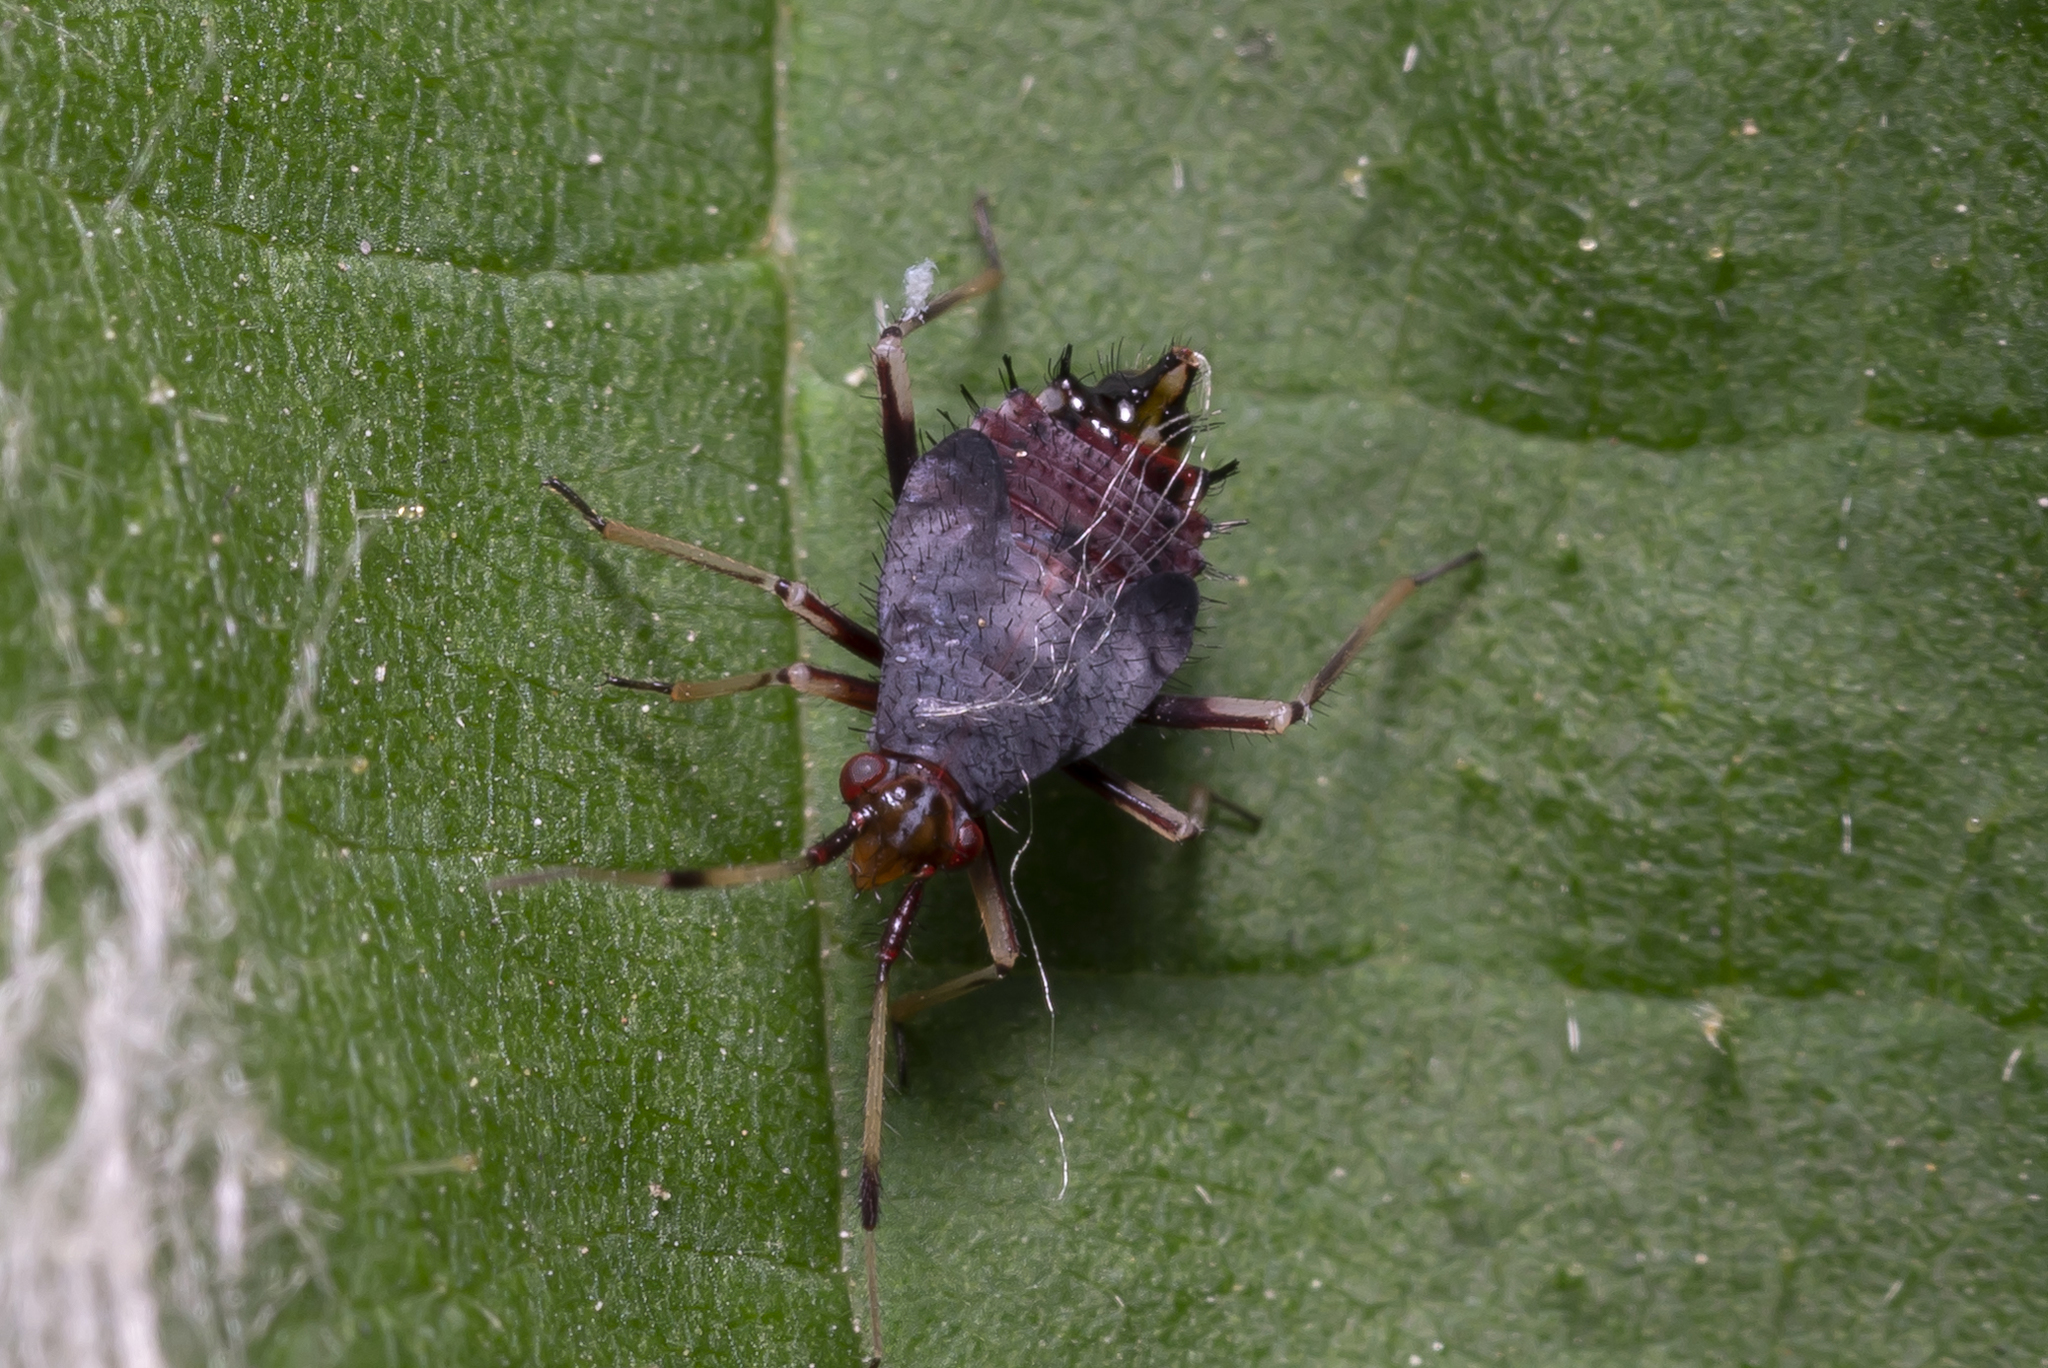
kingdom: Animalia
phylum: Arthropoda
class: Insecta
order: Hemiptera
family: Miridae
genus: Deraeocoris
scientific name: Deraeocoris ruber
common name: Plant bug
